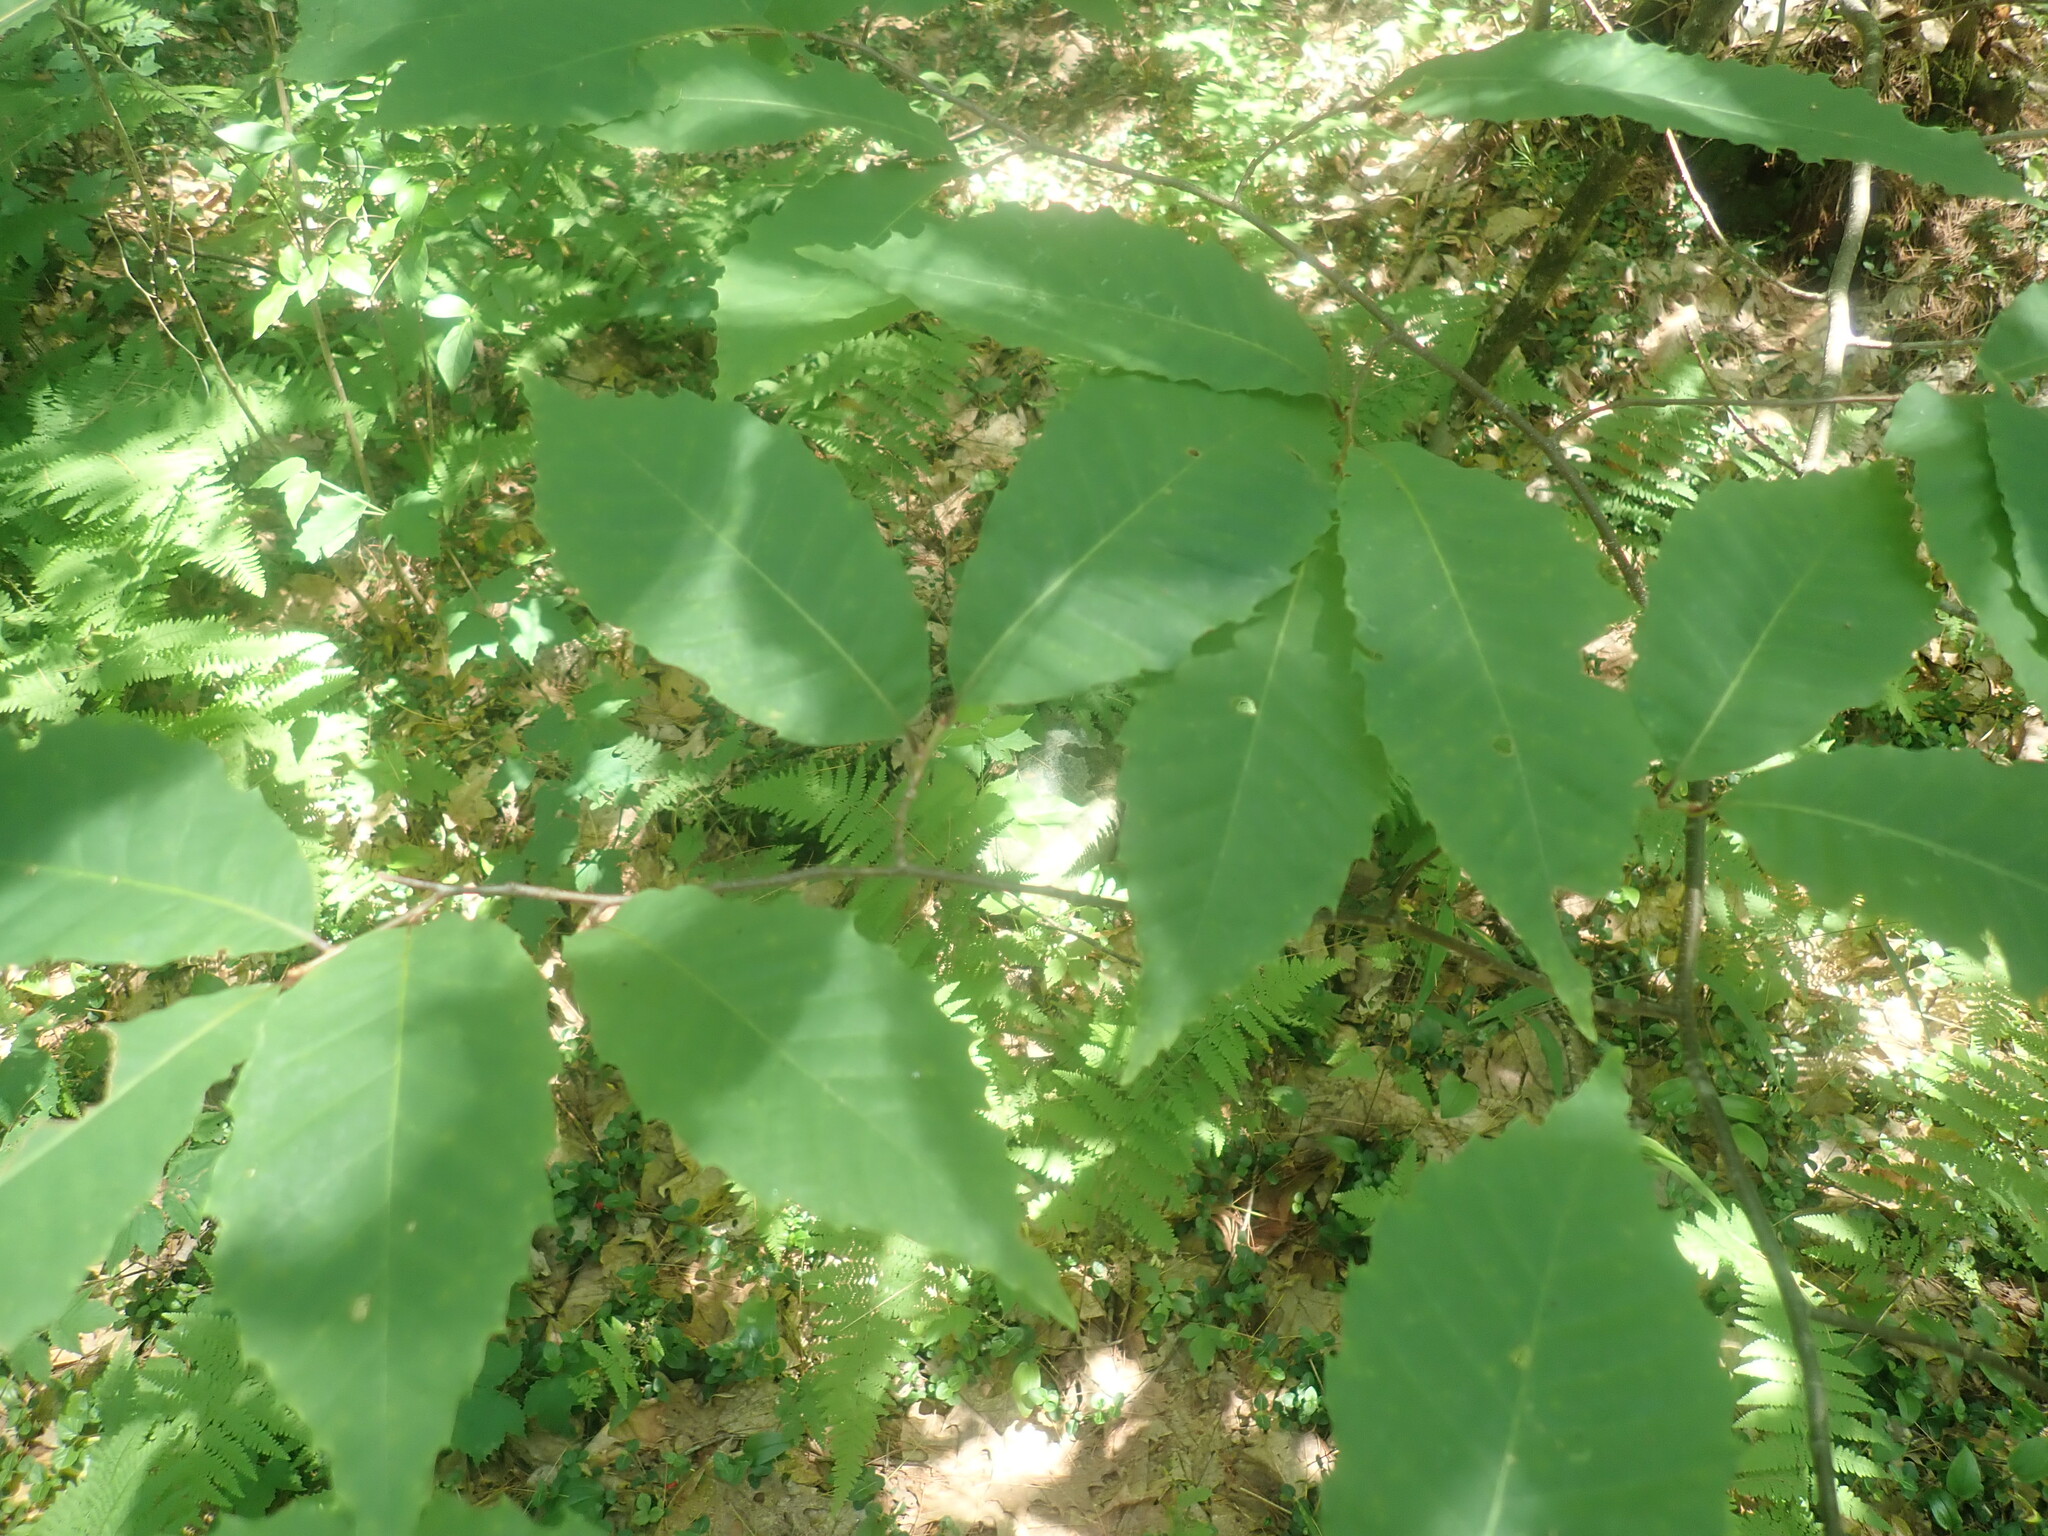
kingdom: Plantae
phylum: Tracheophyta
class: Magnoliopsida
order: Fagales
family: Fagaceae
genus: Castanea
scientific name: Castanea dentata
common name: American chestnut
